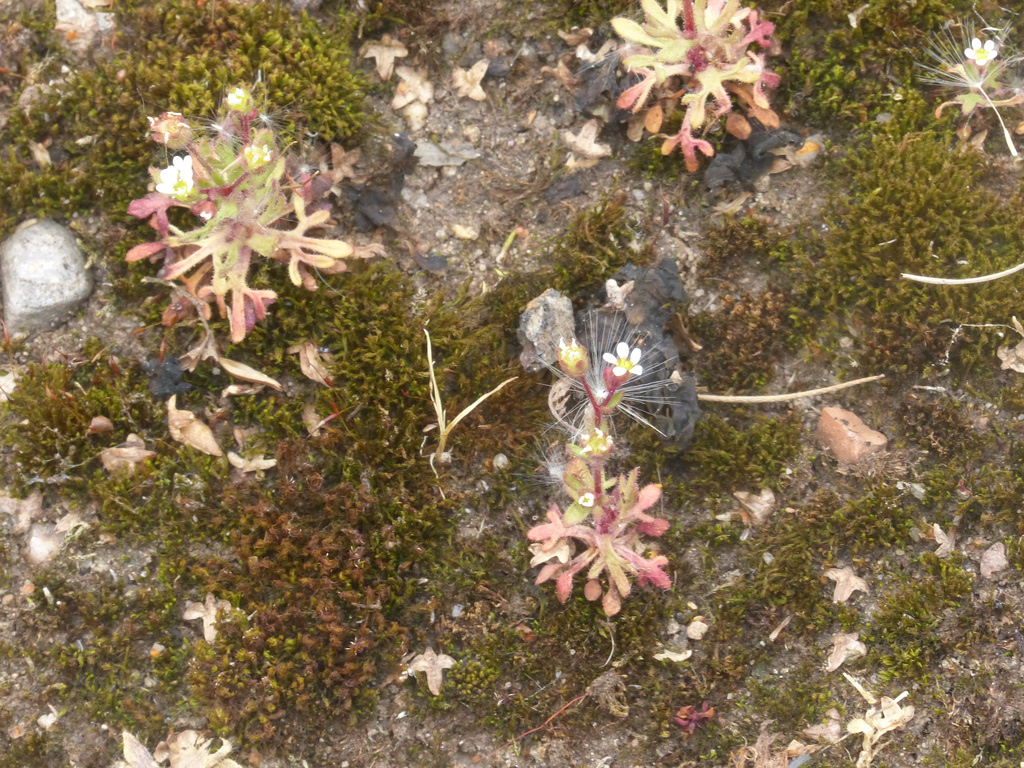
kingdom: Plantae
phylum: Tracheophyta
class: Magnoliopsida
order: Saxifragales
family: Saxifragaceae
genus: Saxifraga
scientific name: Saxifraga tridactylites
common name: Rue-leaved saxifrage
